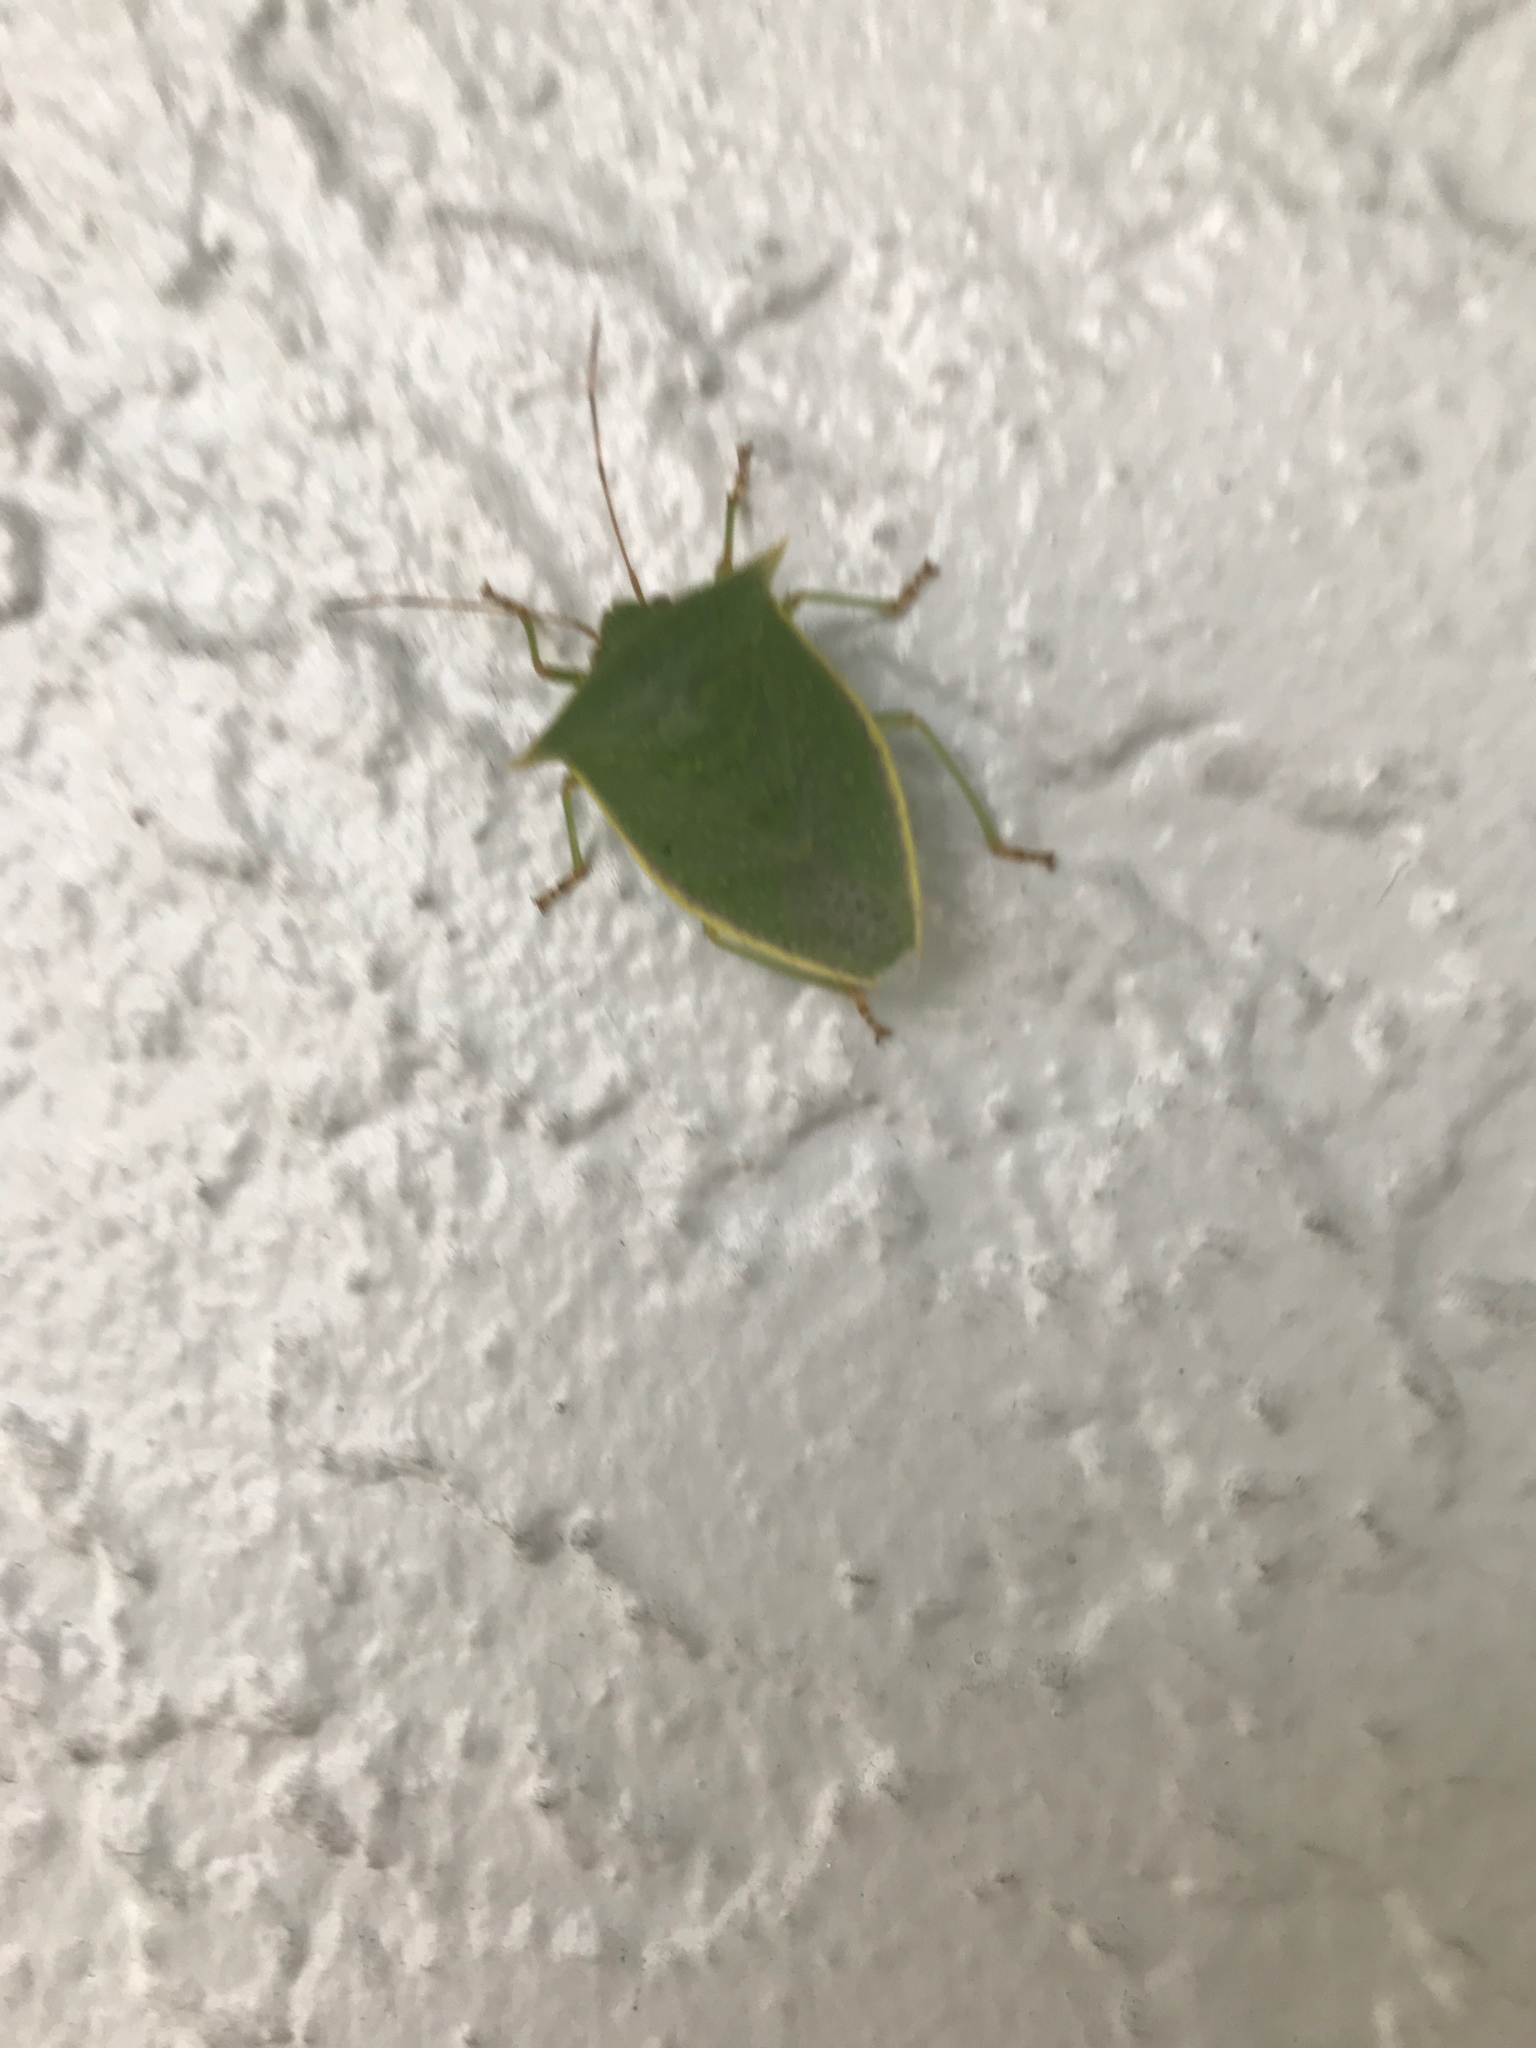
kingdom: Animalia
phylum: Arthropoda
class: Insecta
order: Hemiptera
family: Pentatomidae
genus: Loxa
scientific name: Loxa viridis
